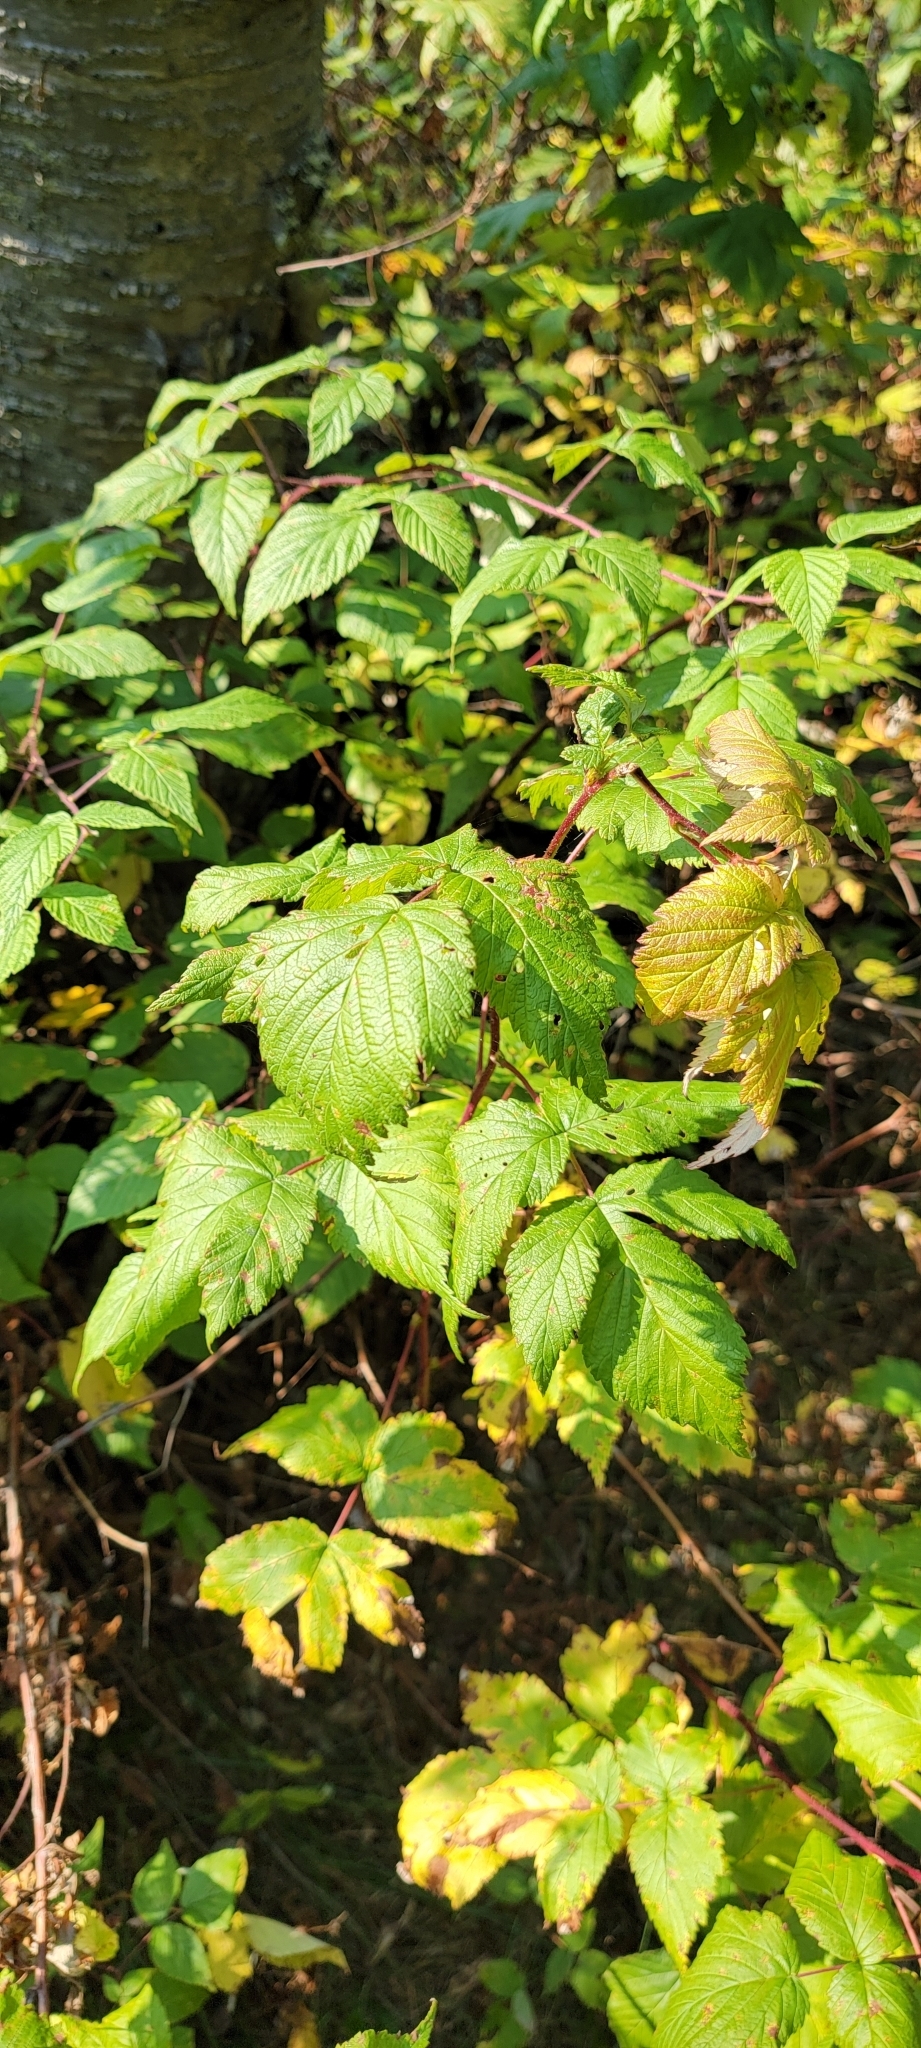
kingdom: Plantae
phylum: Tracheophyta
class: Magnoliopsida
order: Rosales
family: Rosaceae
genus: Rubus
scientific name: Rubus idaeus
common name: Raspberry
